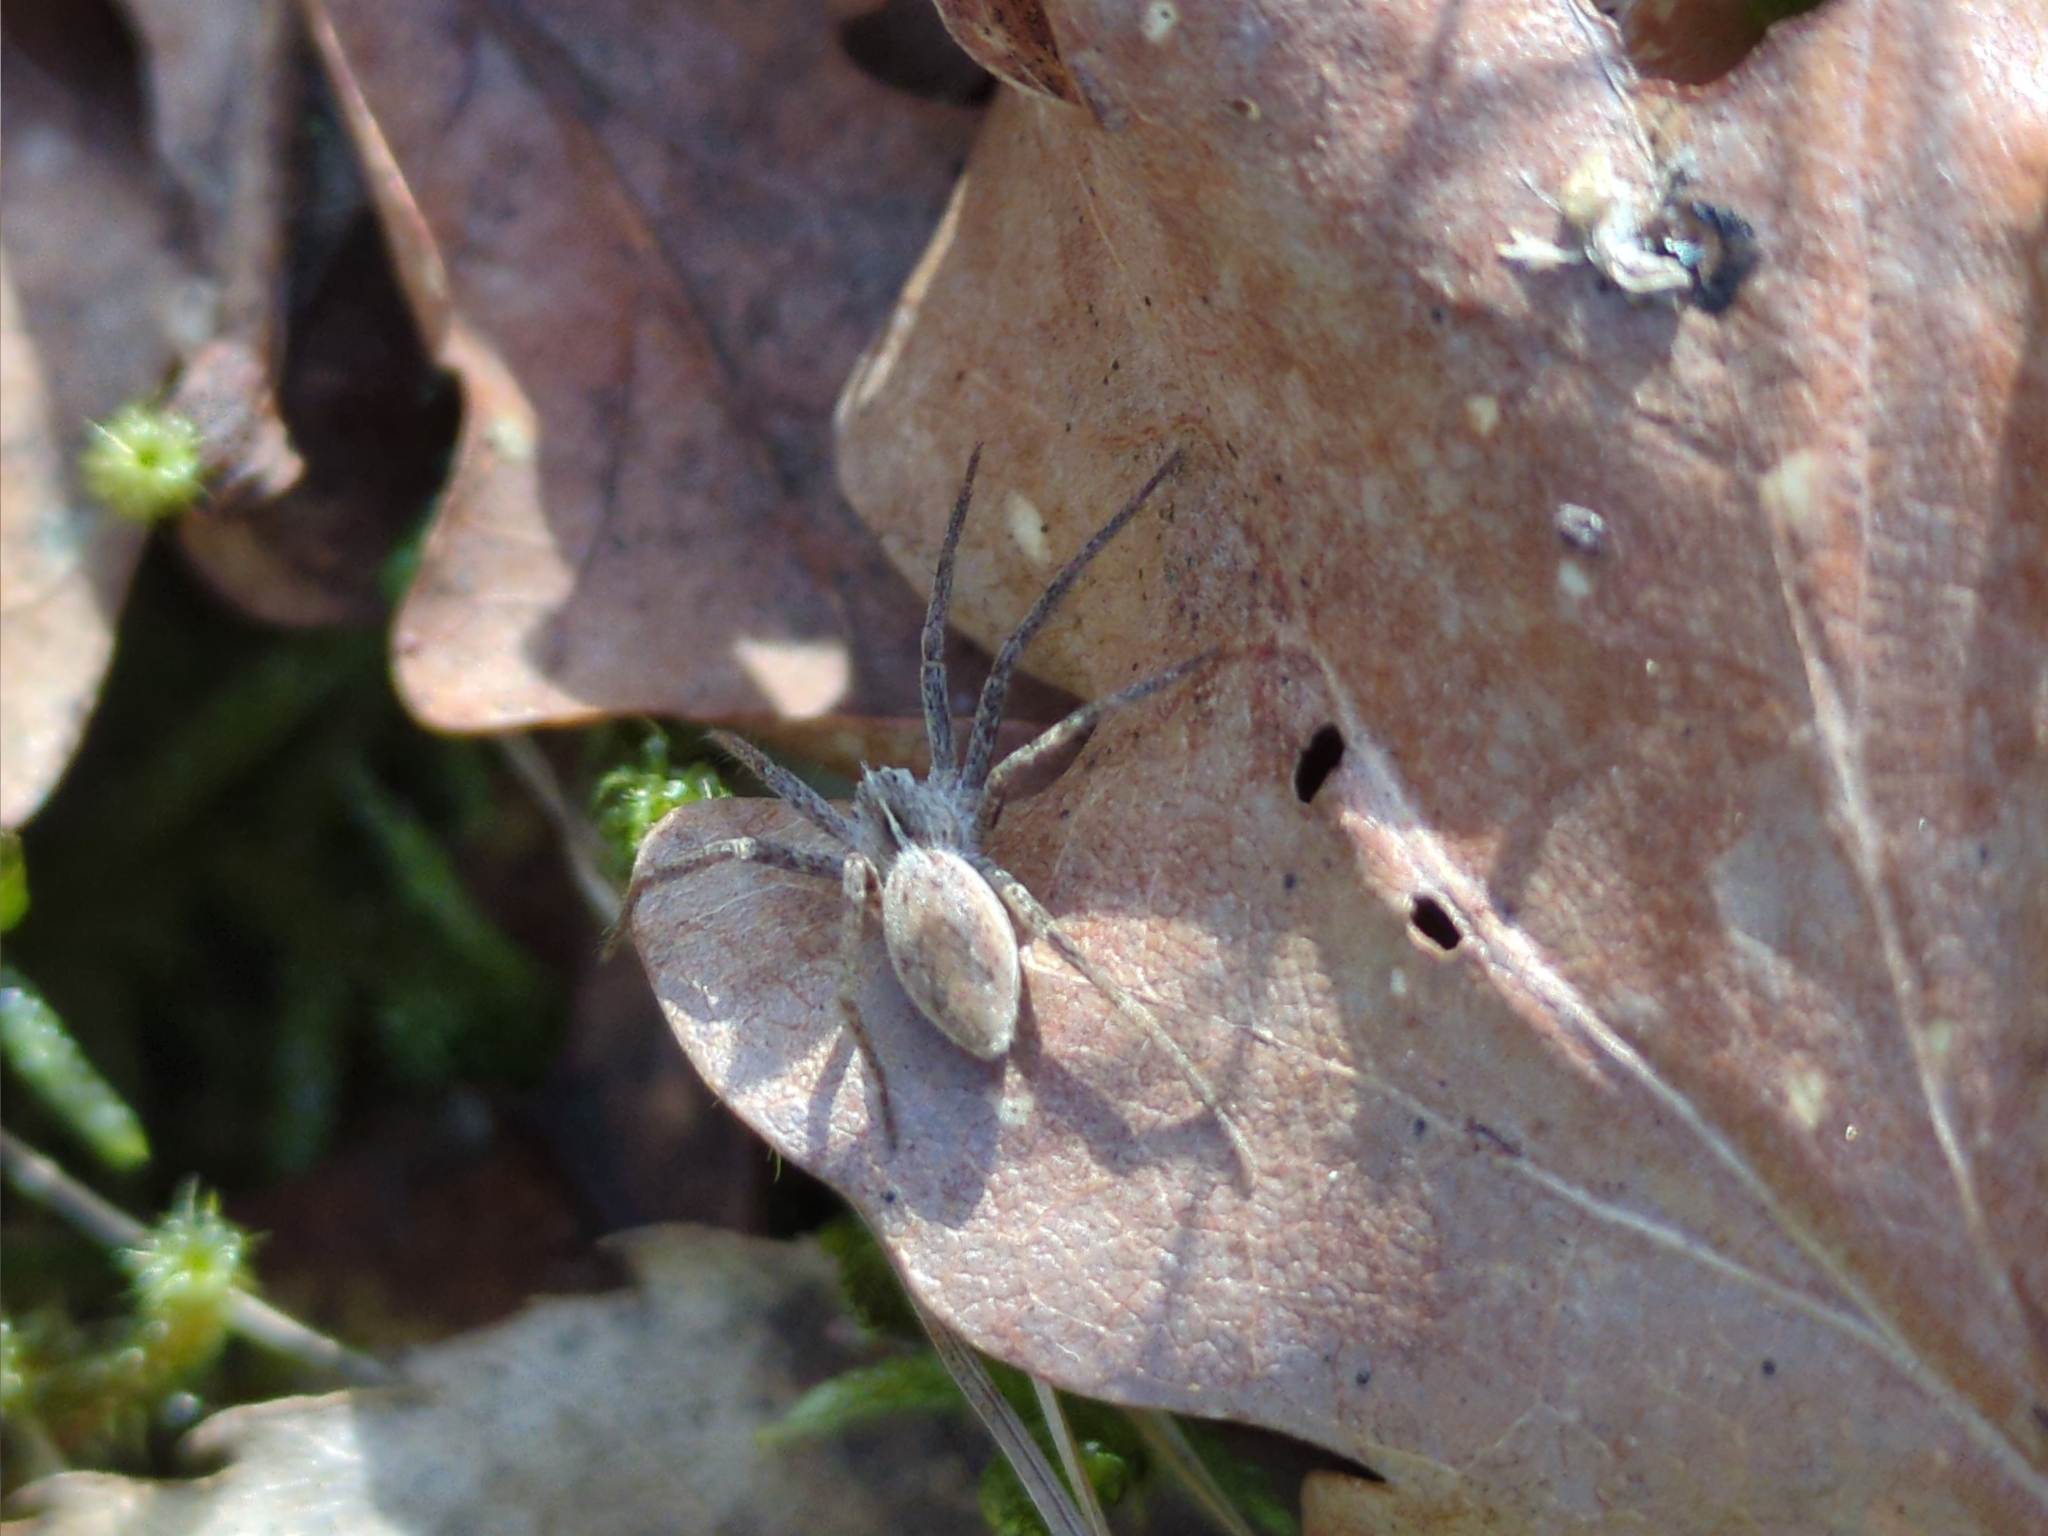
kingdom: Animalia
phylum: Arthropoda
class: Arachnida
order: Araneae
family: Pisauridae
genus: Pisaura
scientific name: Pisaura mirabilis
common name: Tent spider
